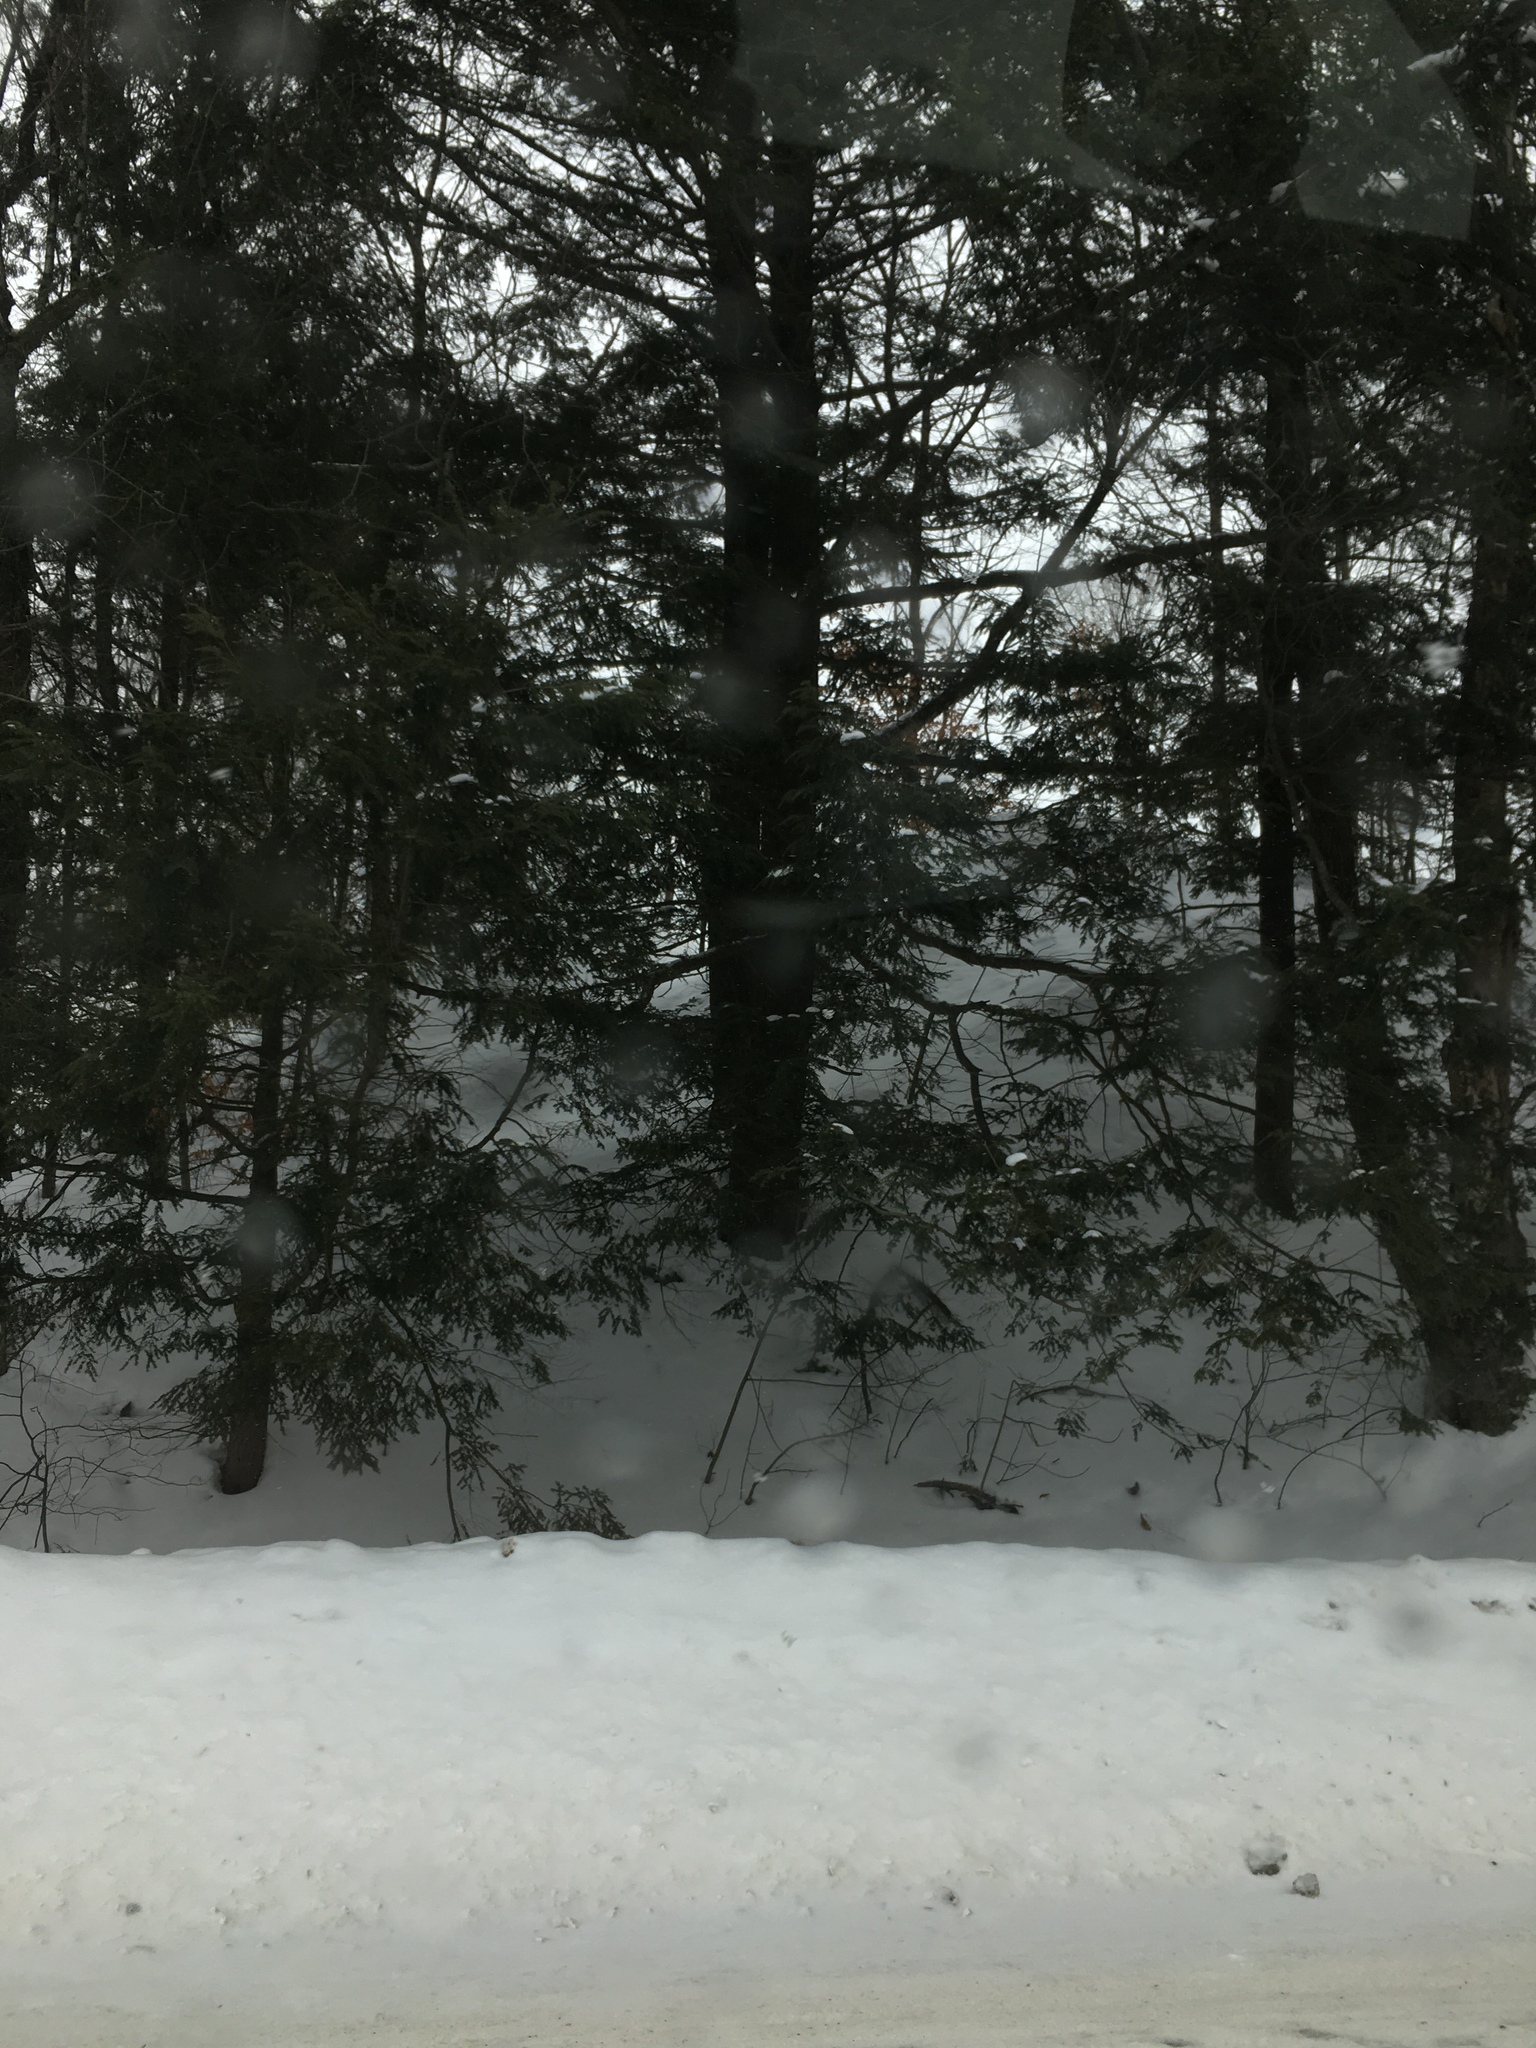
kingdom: Plantae
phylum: Tracheophyta
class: Pinopsida
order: Pinales
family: Pinaceae
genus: Tsuga
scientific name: Tsuga canadensis
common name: Eastern hemlock
